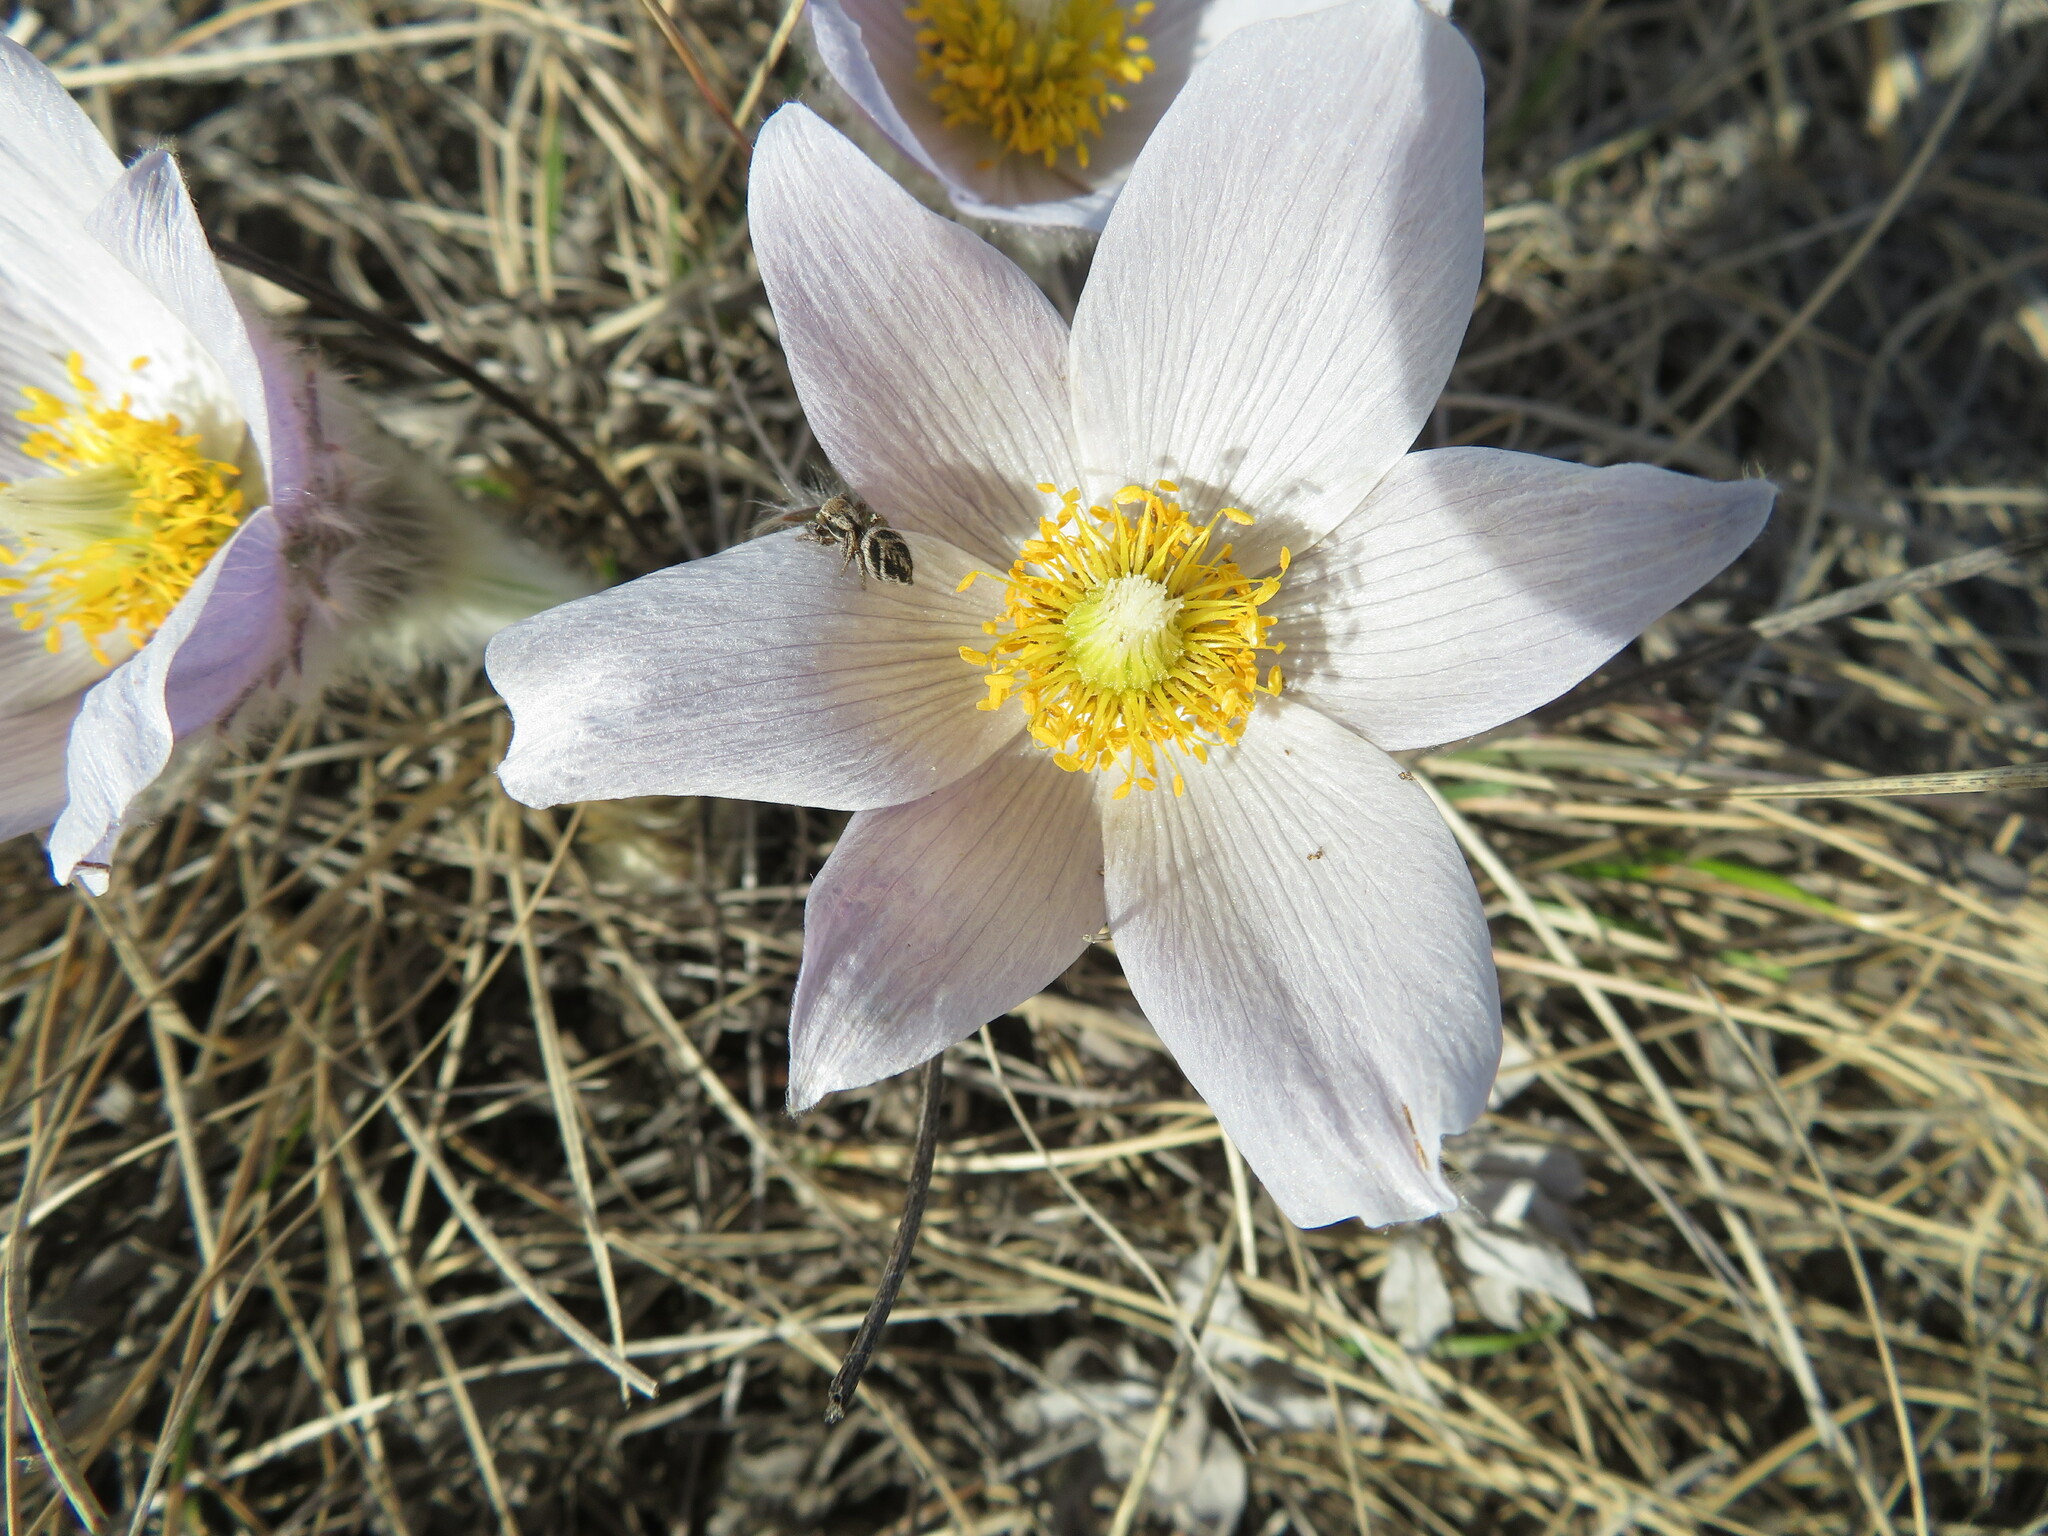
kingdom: Plantae
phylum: Tracheophyta
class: Magnoliopsida
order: Ranunculales
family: Ranunculaceae
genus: Pulsatilla
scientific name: Pulsatilla nuttalliana
